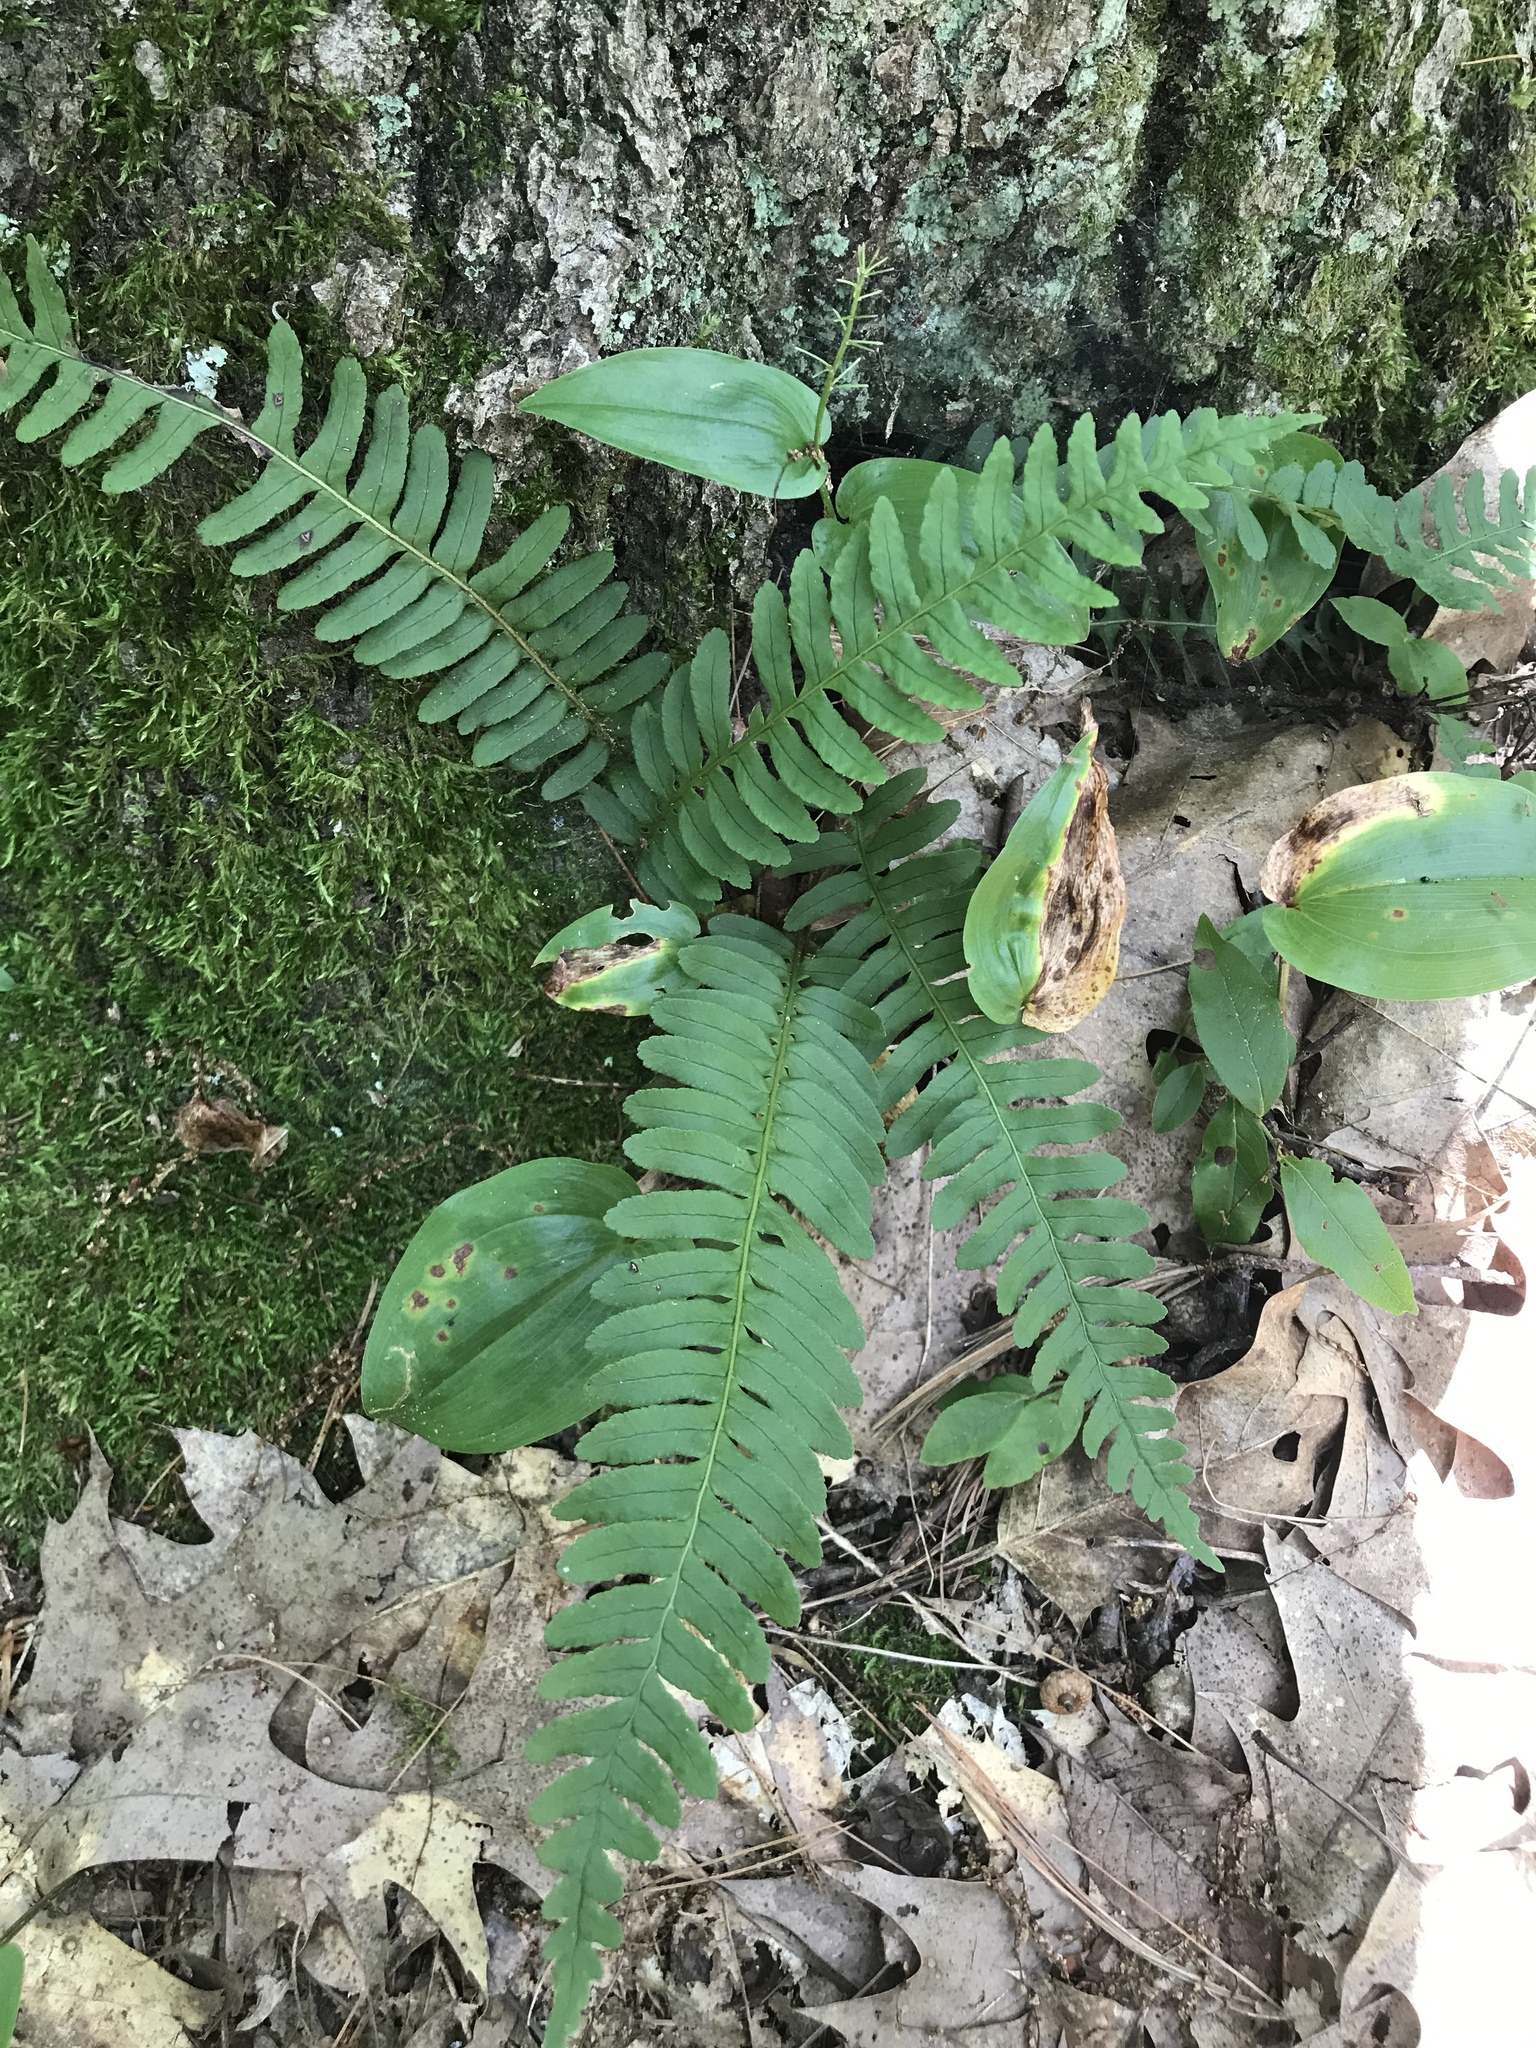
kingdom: Plantae
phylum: Tracheophyta
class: Polypodiopsida
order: Polypodiales
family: Polypodiaceae
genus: Polypodium
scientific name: Polypodium virginianum
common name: American wall fern
